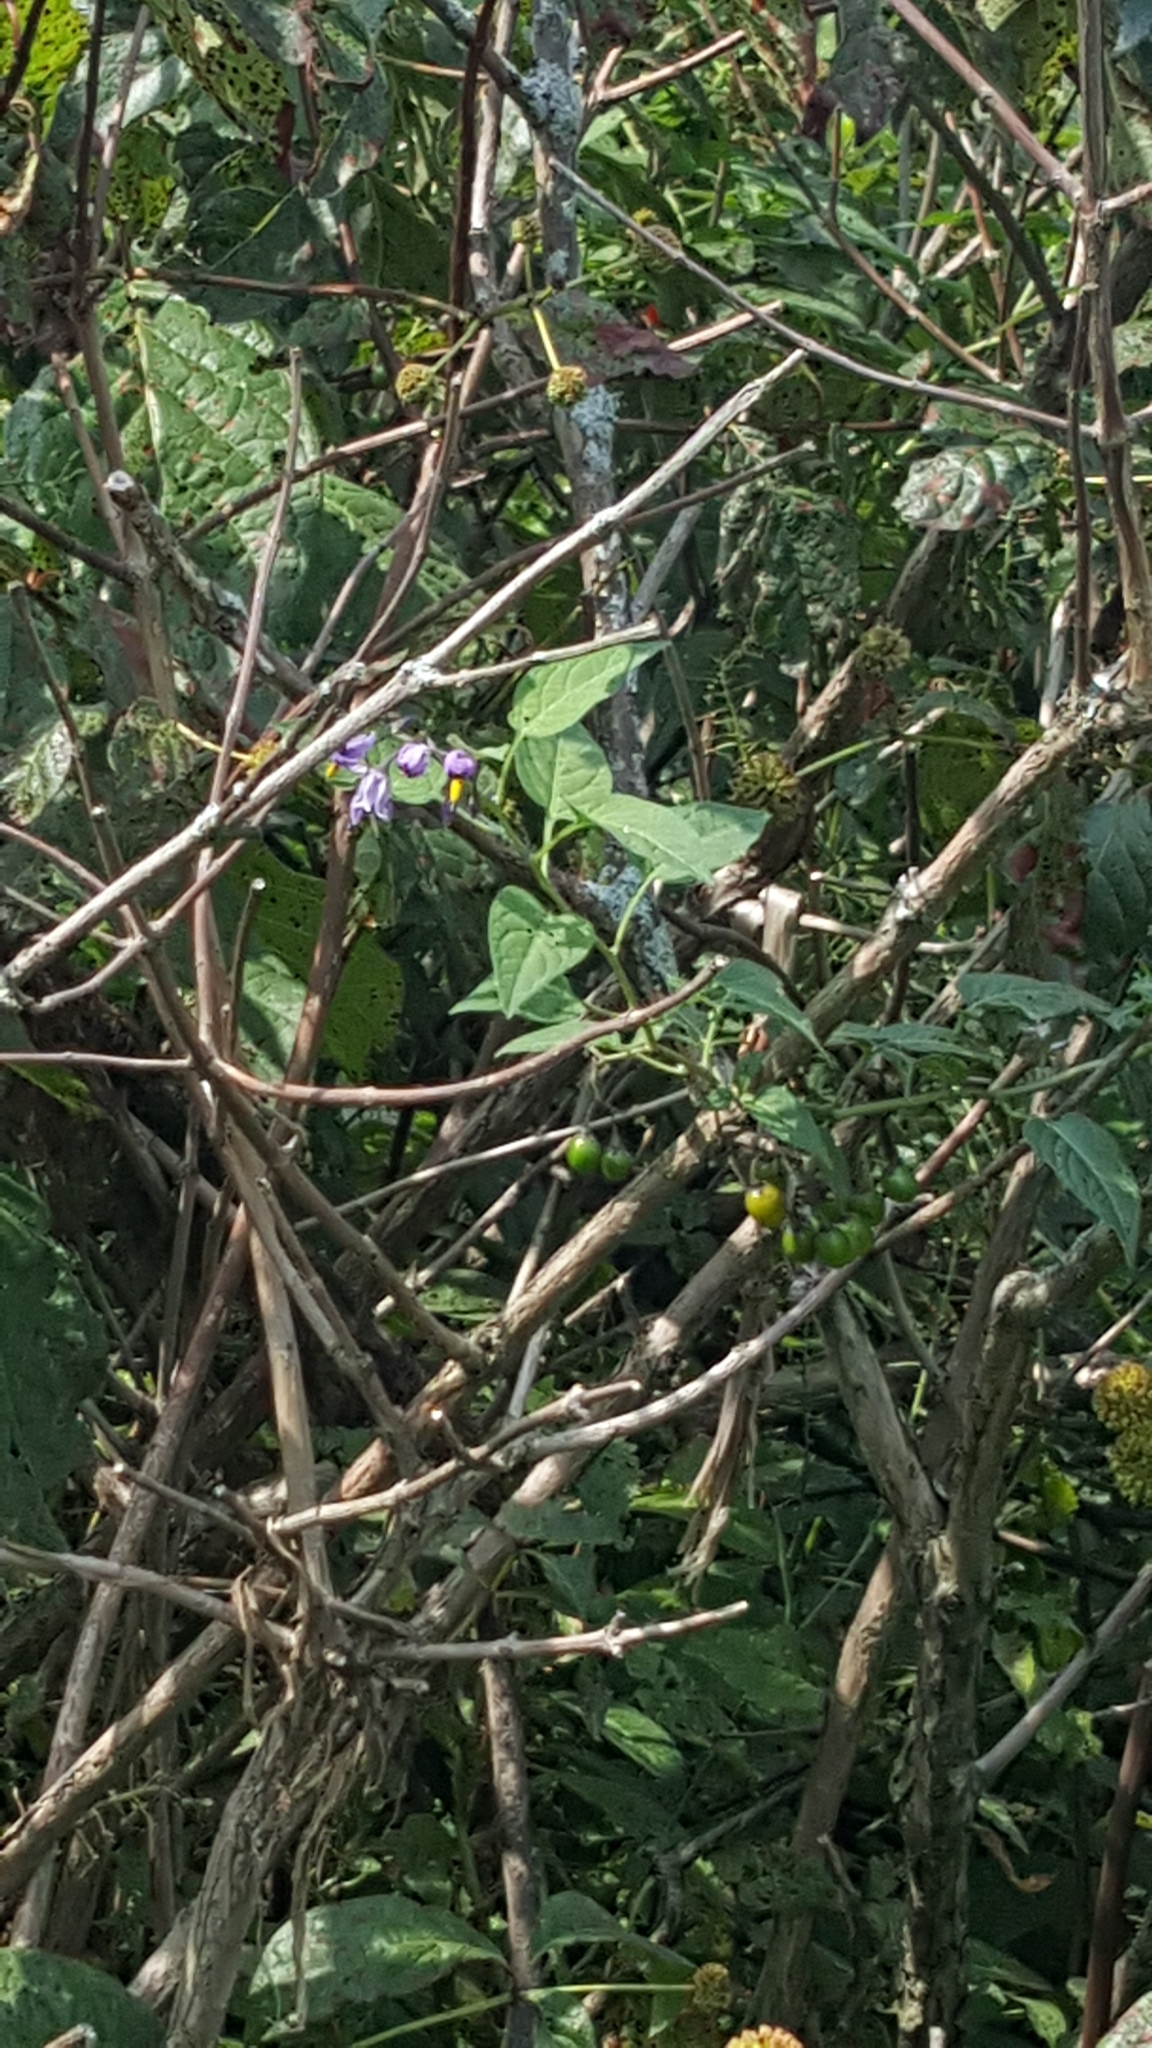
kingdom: Plantae
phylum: Tracheophyta
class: Magnoliopsida
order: Solanales
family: Solanaceae
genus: Solanum
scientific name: Solanum dulcamara
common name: Climbing nightshade
